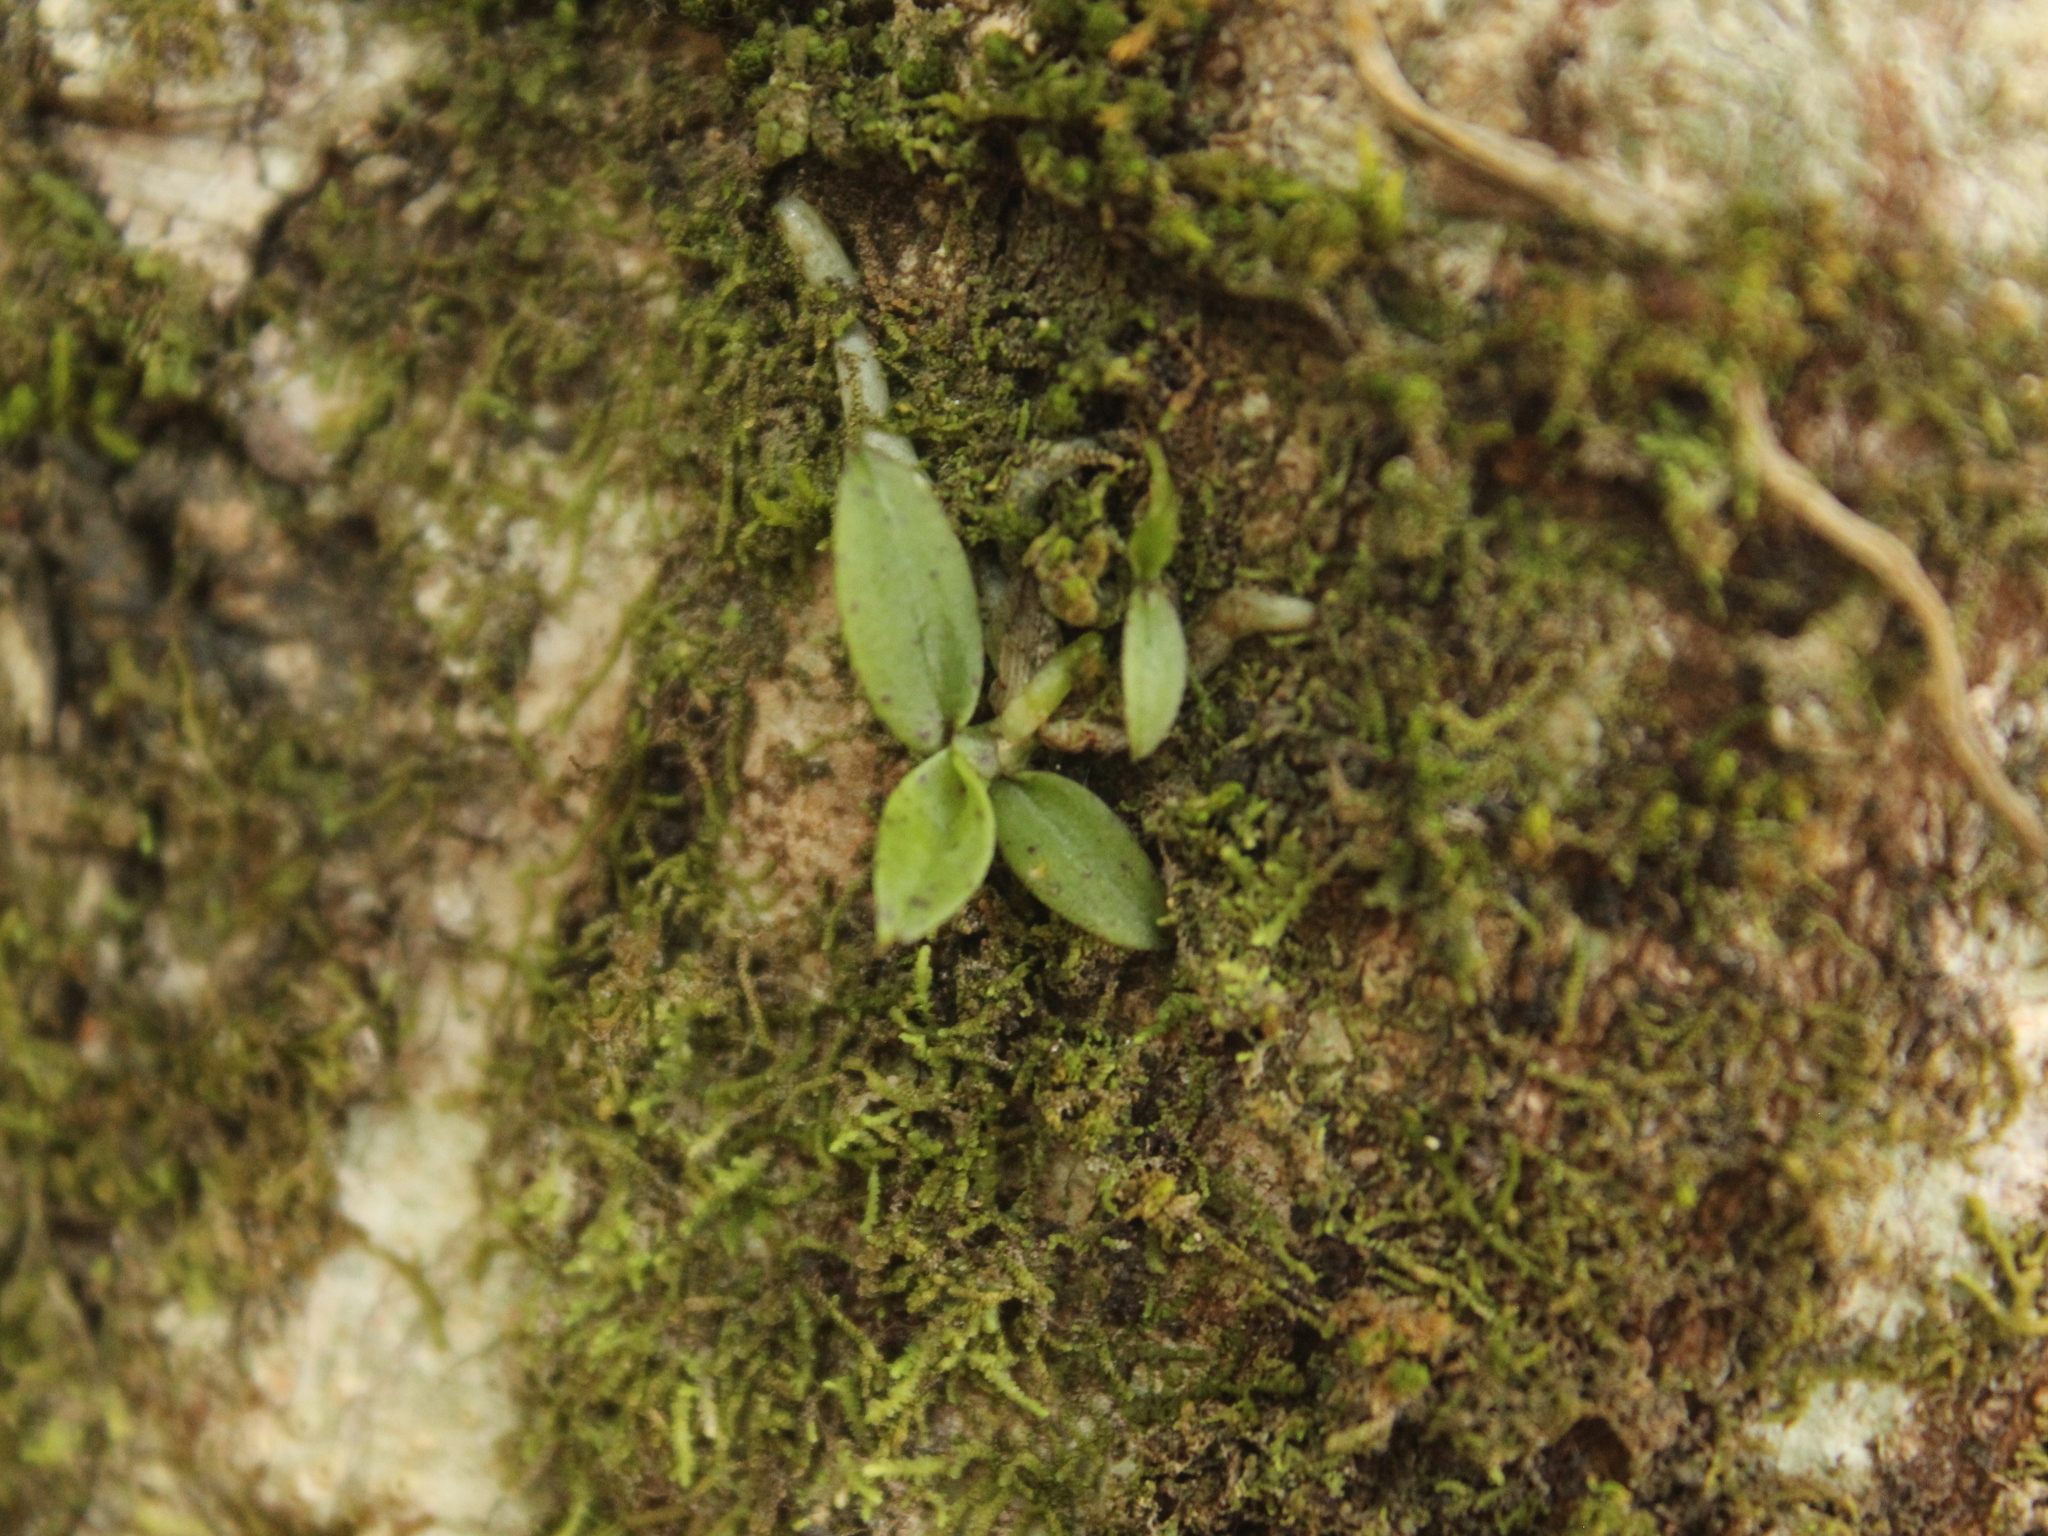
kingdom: Plantae
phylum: Tracheophyta
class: Liliopsida
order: Asparagales
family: Orchidaceae
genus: Drymoanthus
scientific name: Drymoanthus flavus
